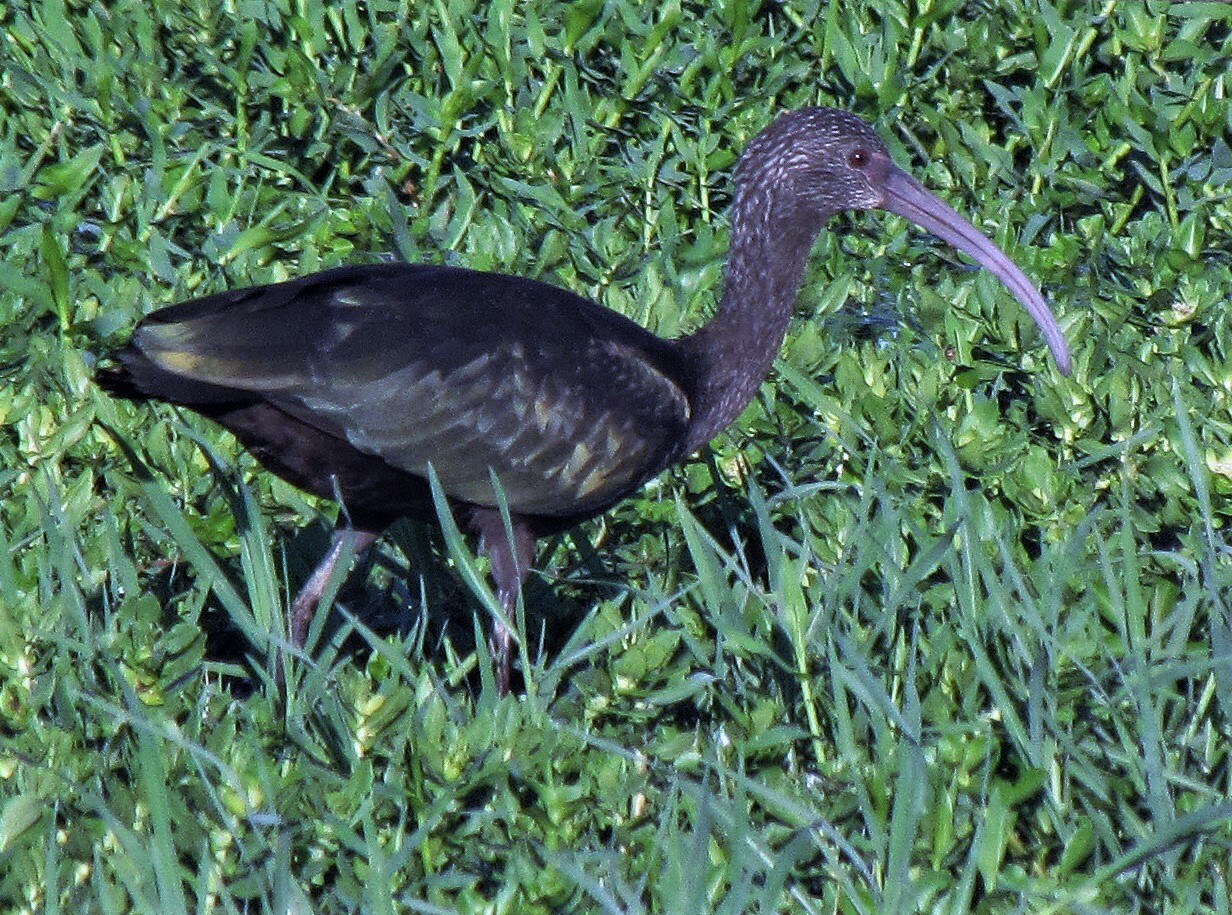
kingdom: Animalia
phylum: Chordata
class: Aves
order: Pelecaniformes
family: Threskiornithidae
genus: Plegadis
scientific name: Plegadis chihi
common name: White-faced ibis
